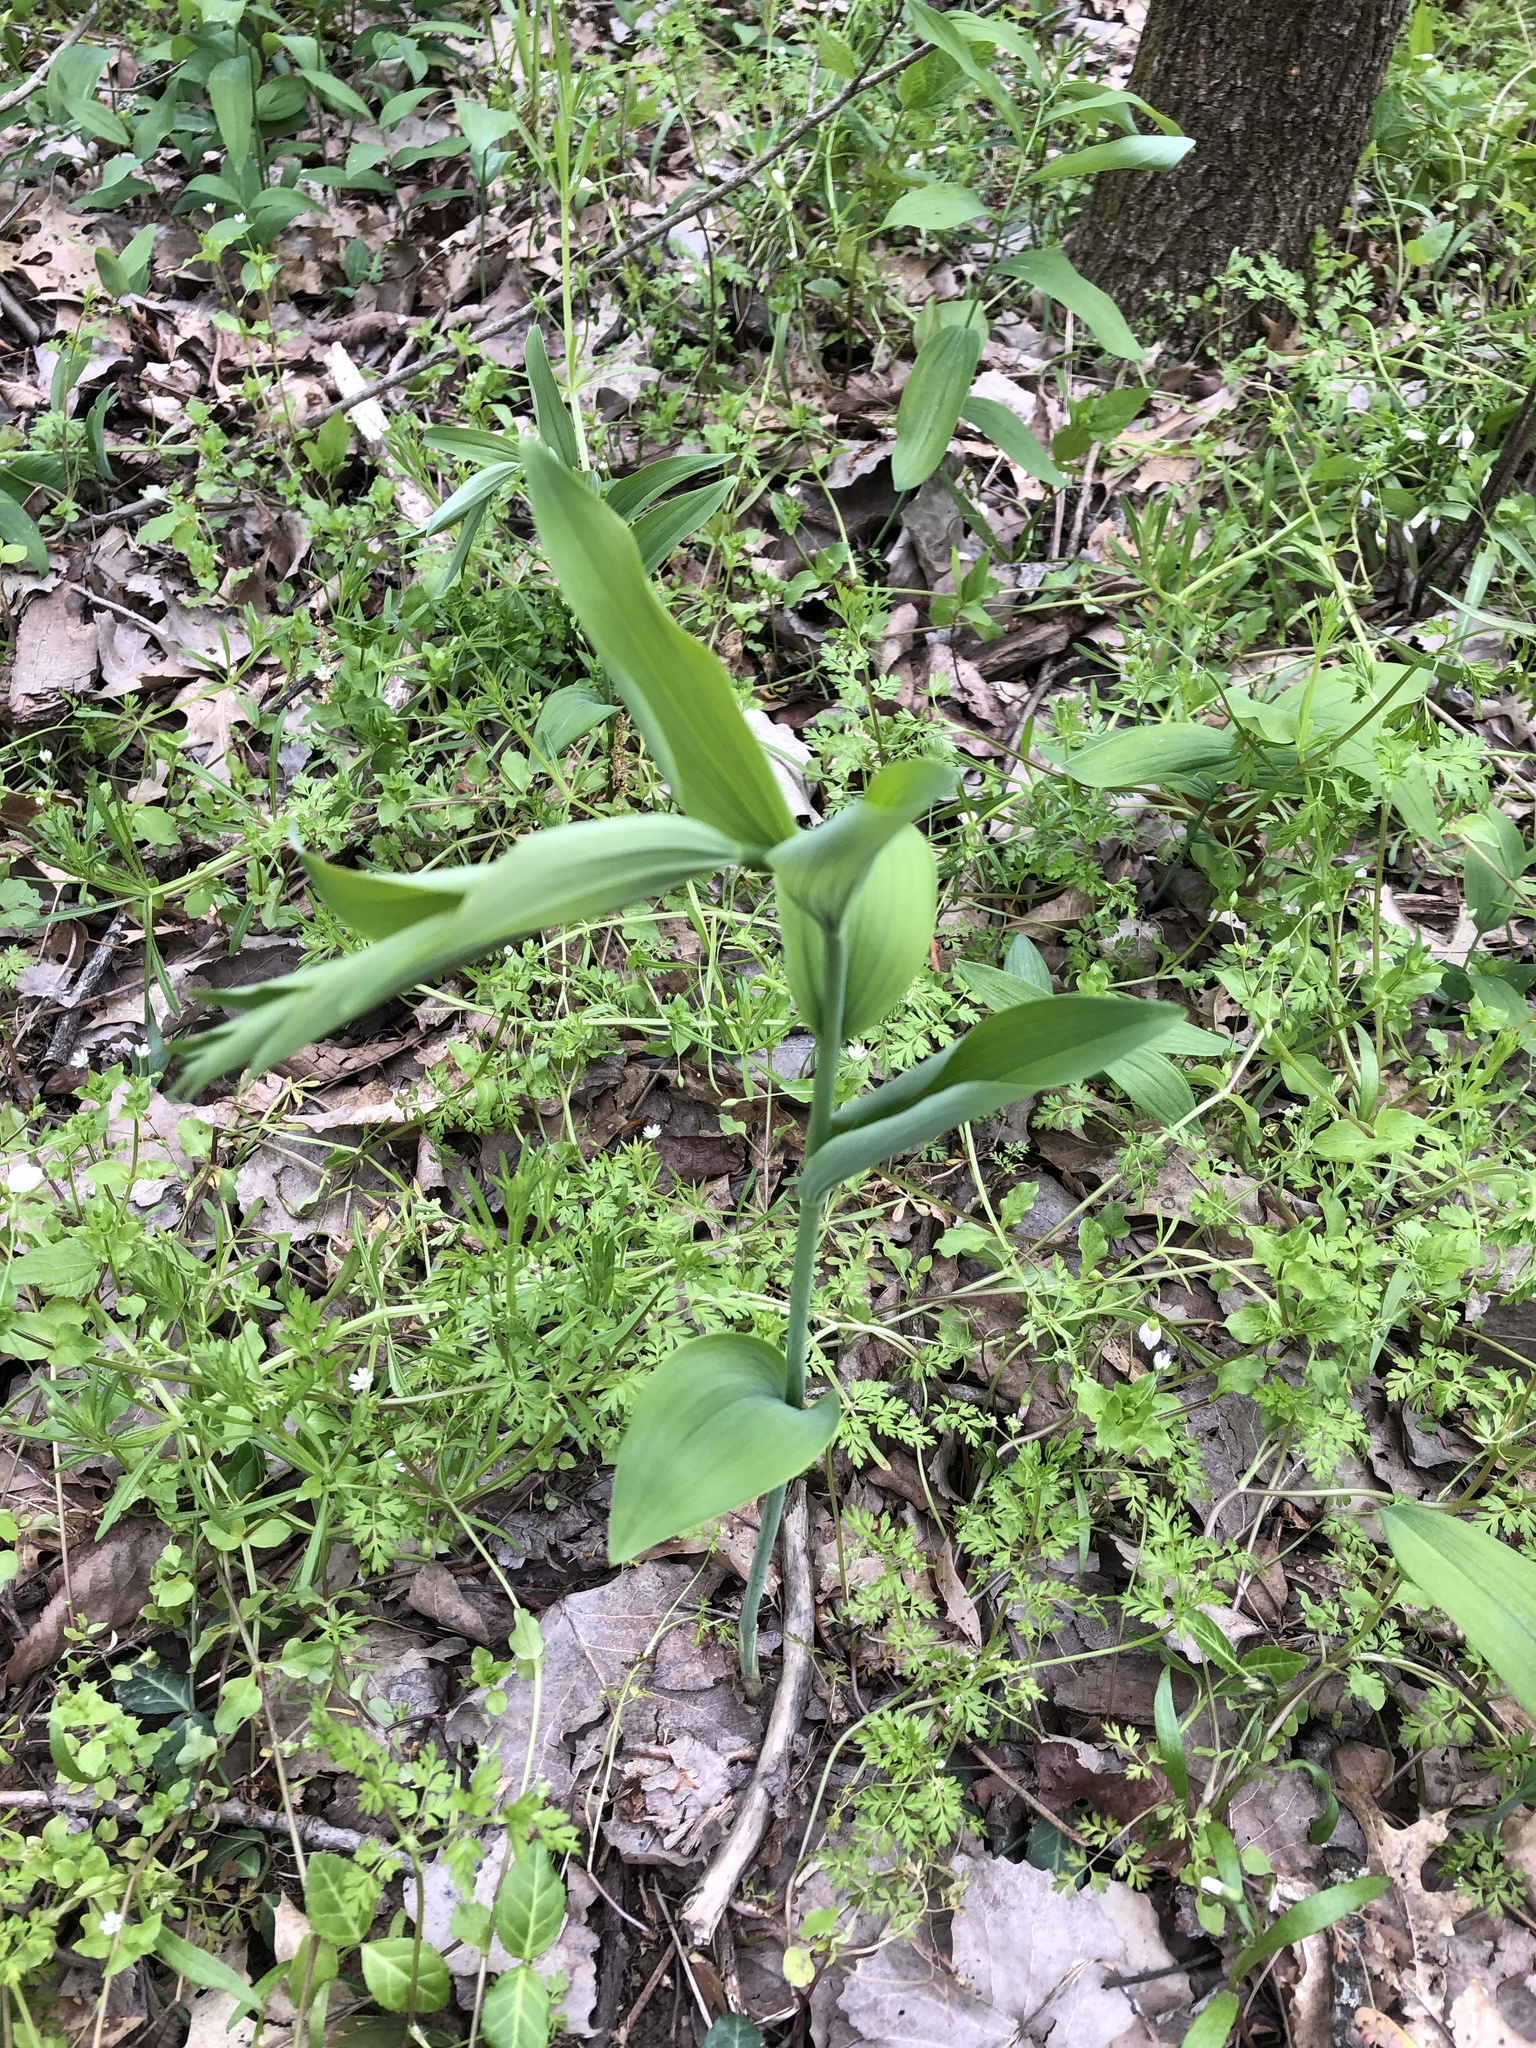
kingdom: Plantae
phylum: Tracheophyta
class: Liliopsida
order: Asparagales
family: Asparagaceae
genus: Polygonatum
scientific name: Polygonatum biflorum
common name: American solomon's-seal
